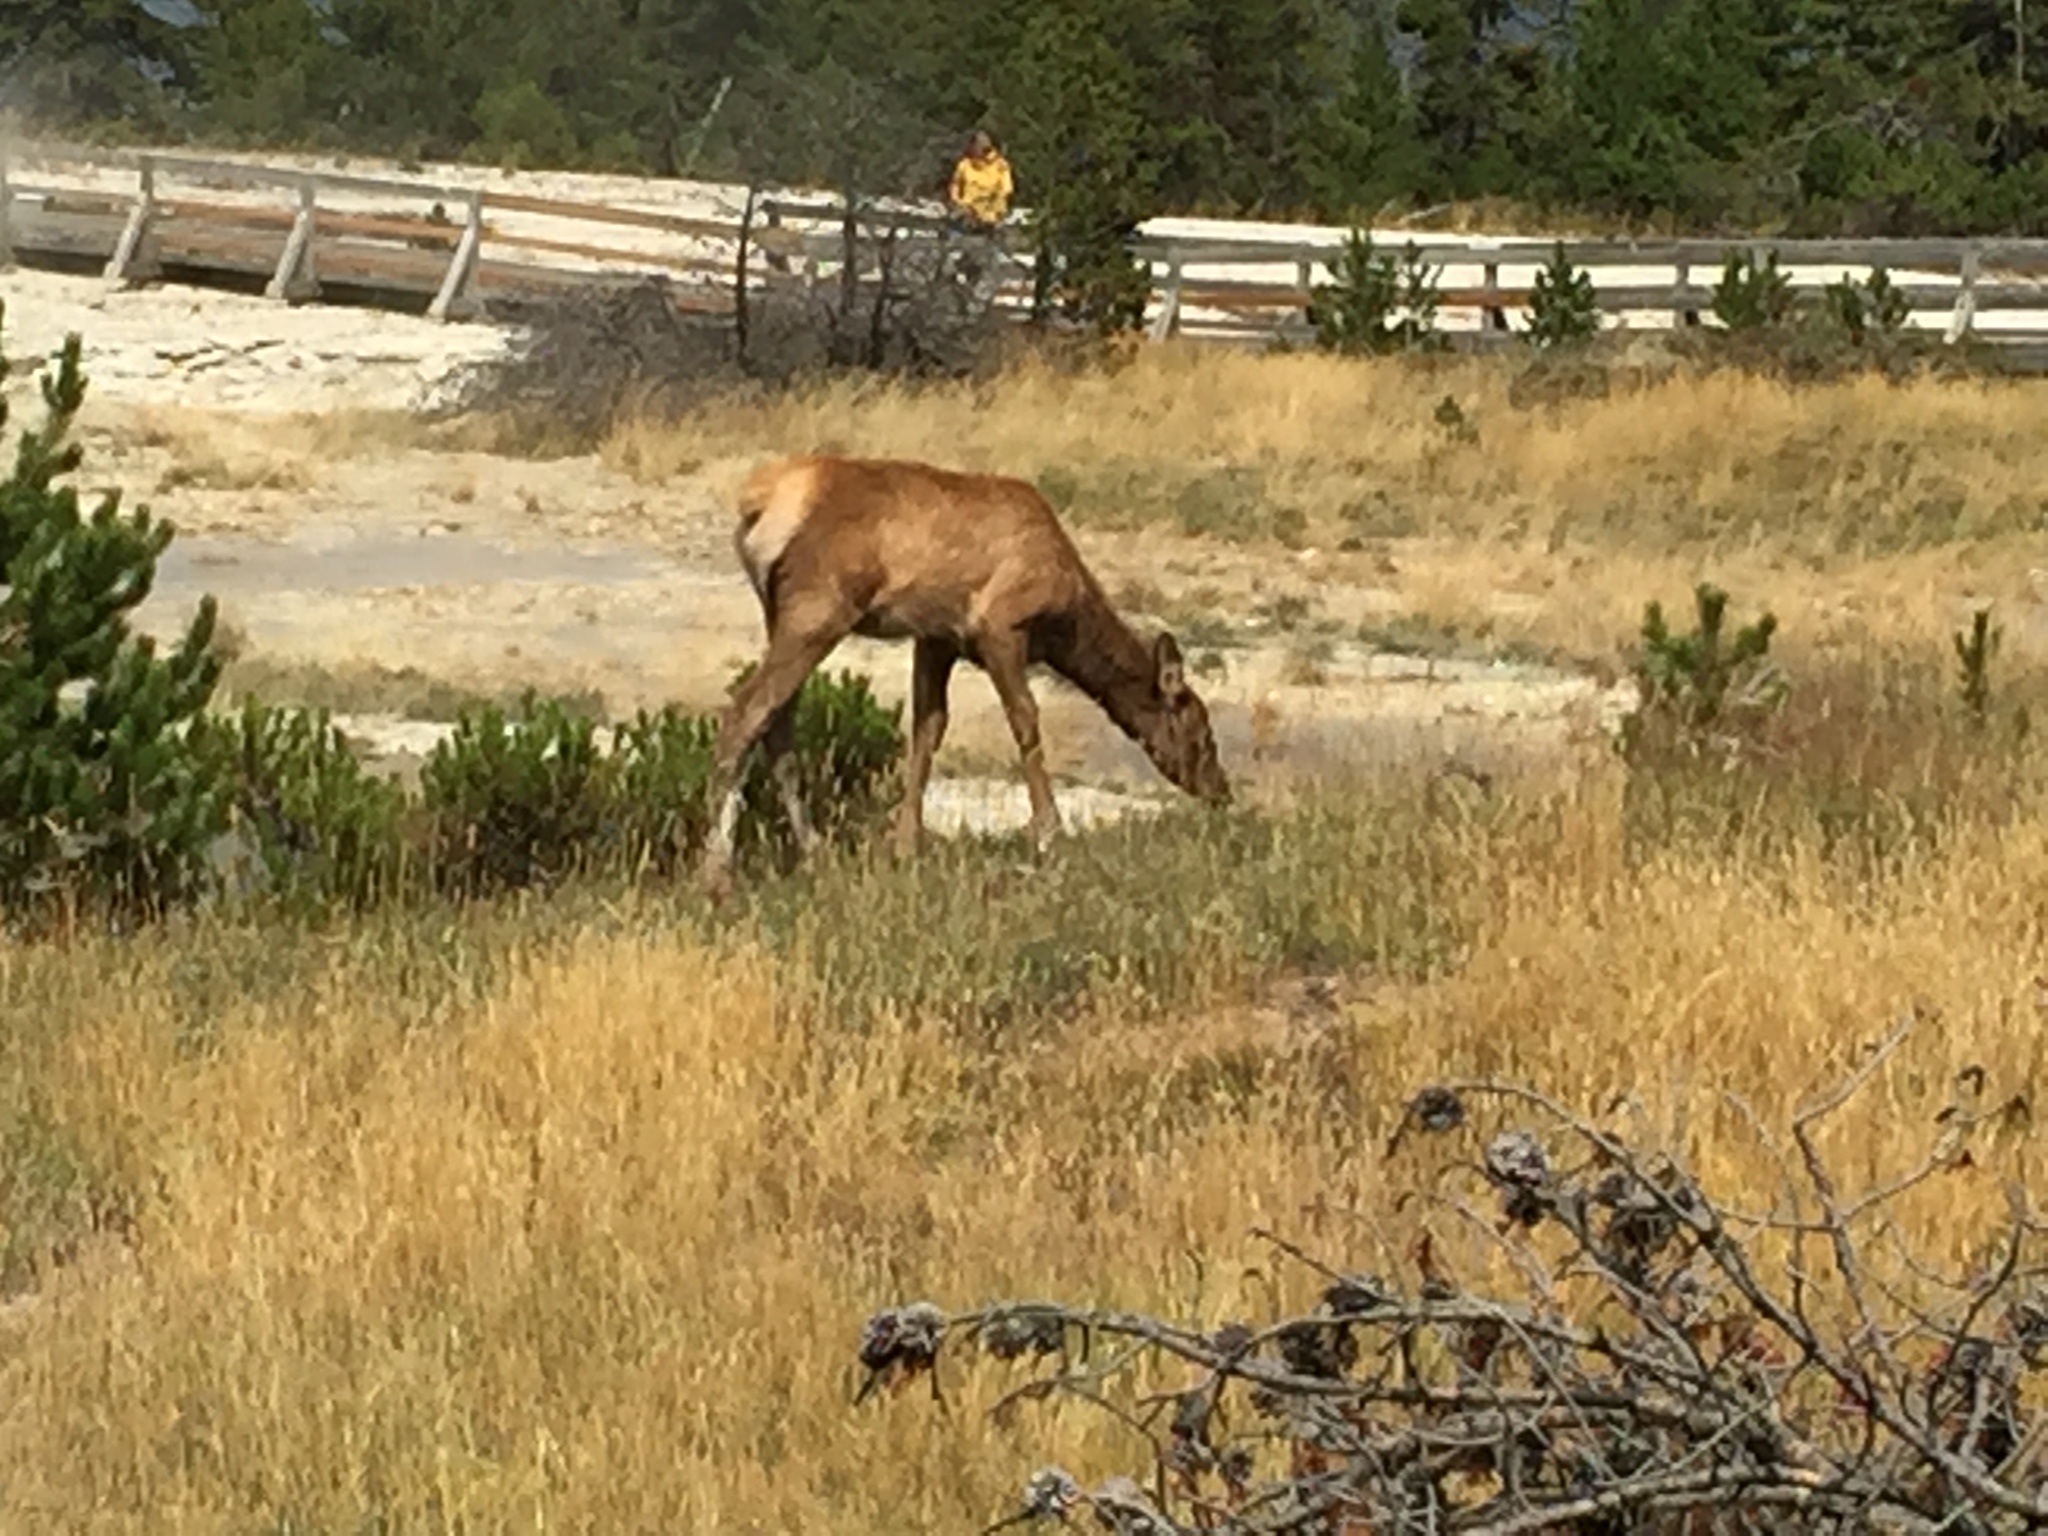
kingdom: Animalia
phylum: Chordata
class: Mammalia
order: Artiodactyla
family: Cervidae
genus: Cervus
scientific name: Cervus elaphus
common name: Red deer
